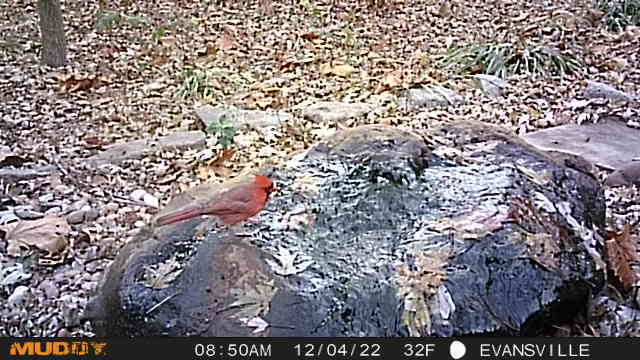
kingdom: Animalia
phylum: Chordata
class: Aves
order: Passeriformes
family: Cardinalidae
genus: Cardinalis
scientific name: Cardinalis cardinalis
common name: Northern cardinal
